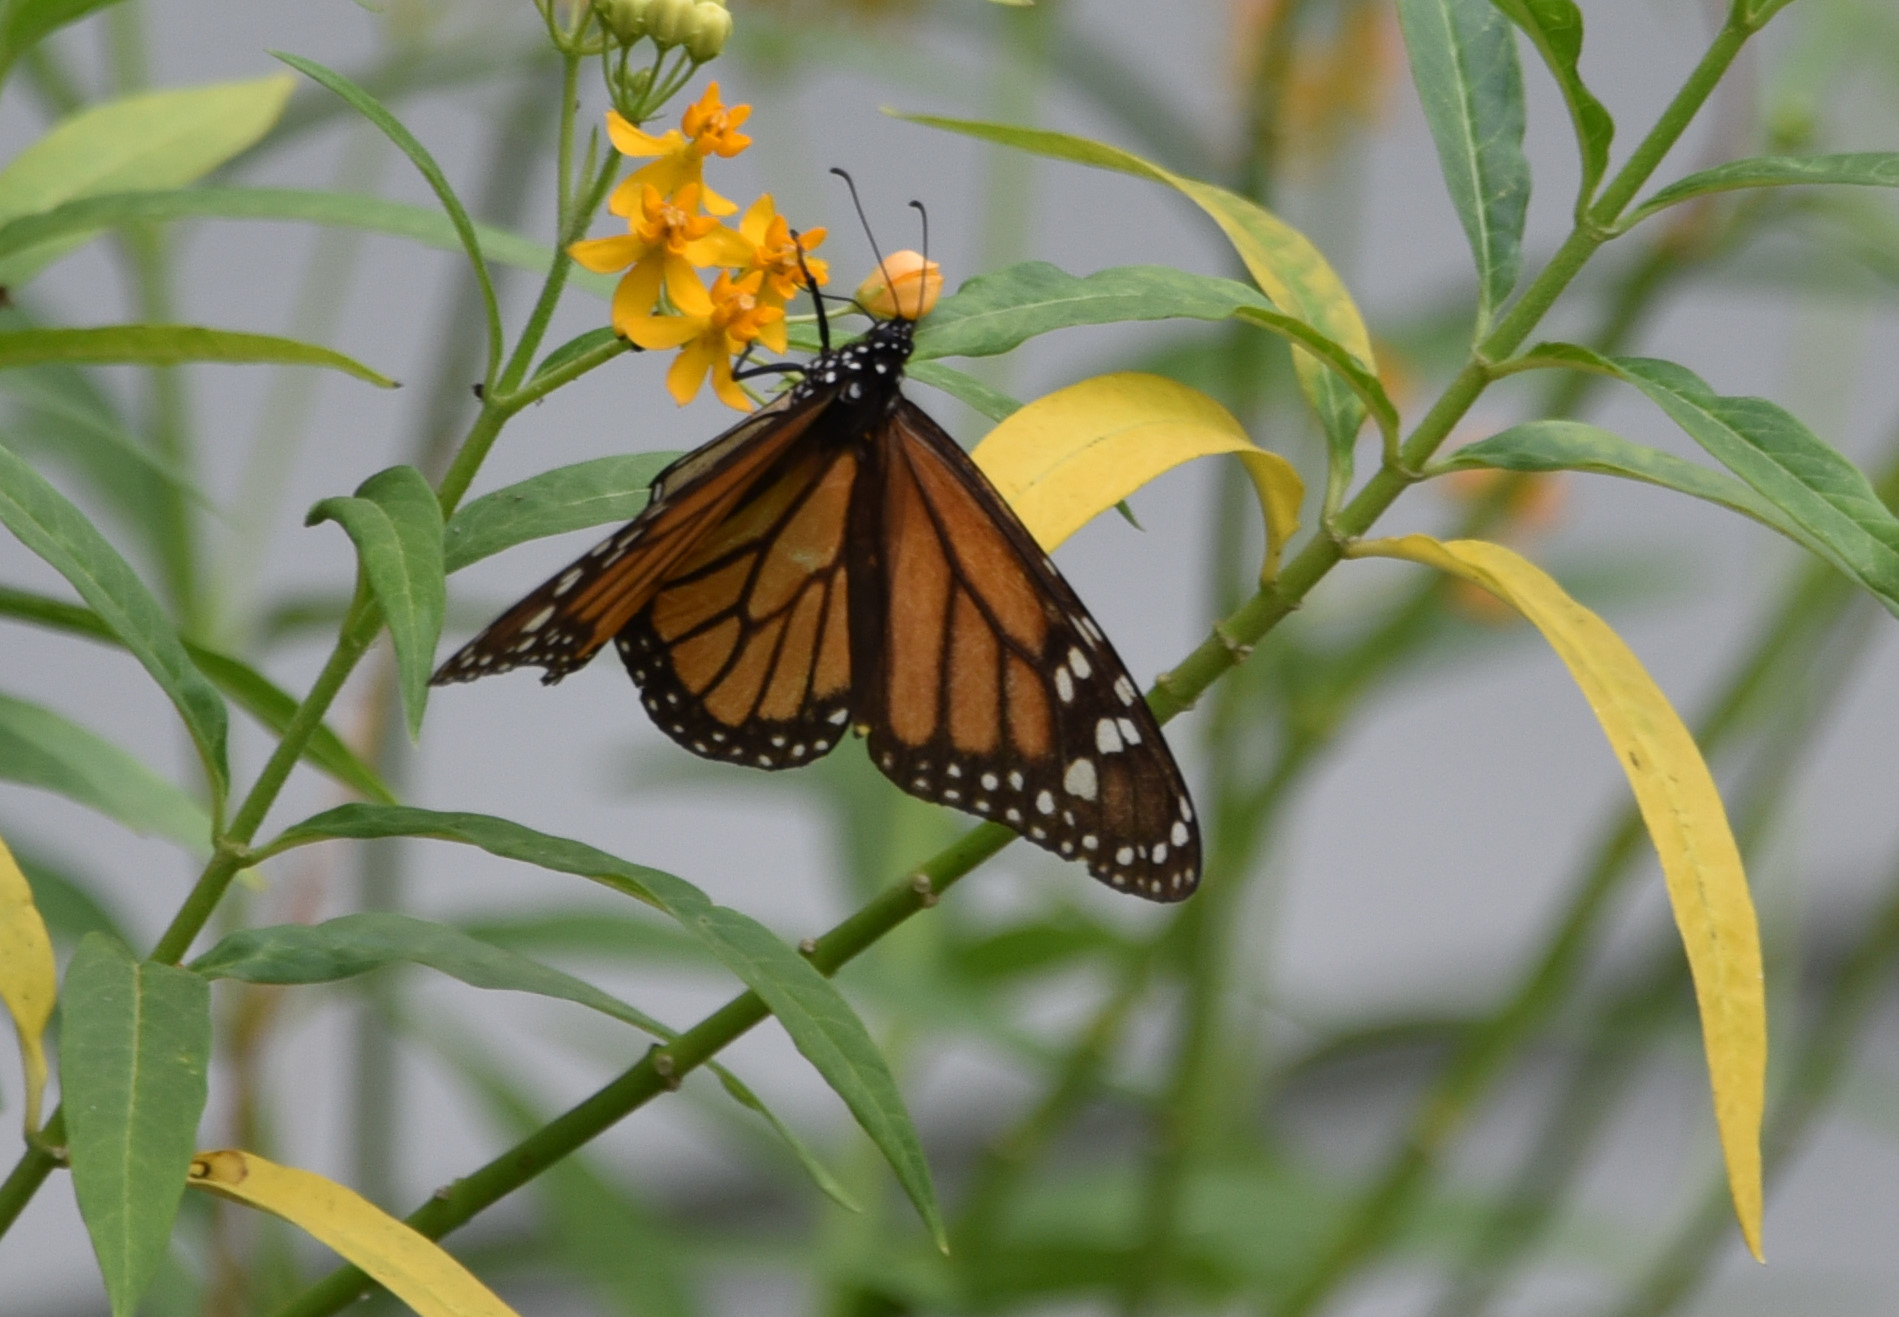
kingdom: Animalia
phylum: Arthropoda
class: Insecta
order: Lepidoptera
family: Nymphalidae
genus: Danaus
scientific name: Danaus plexippus
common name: Monarch
